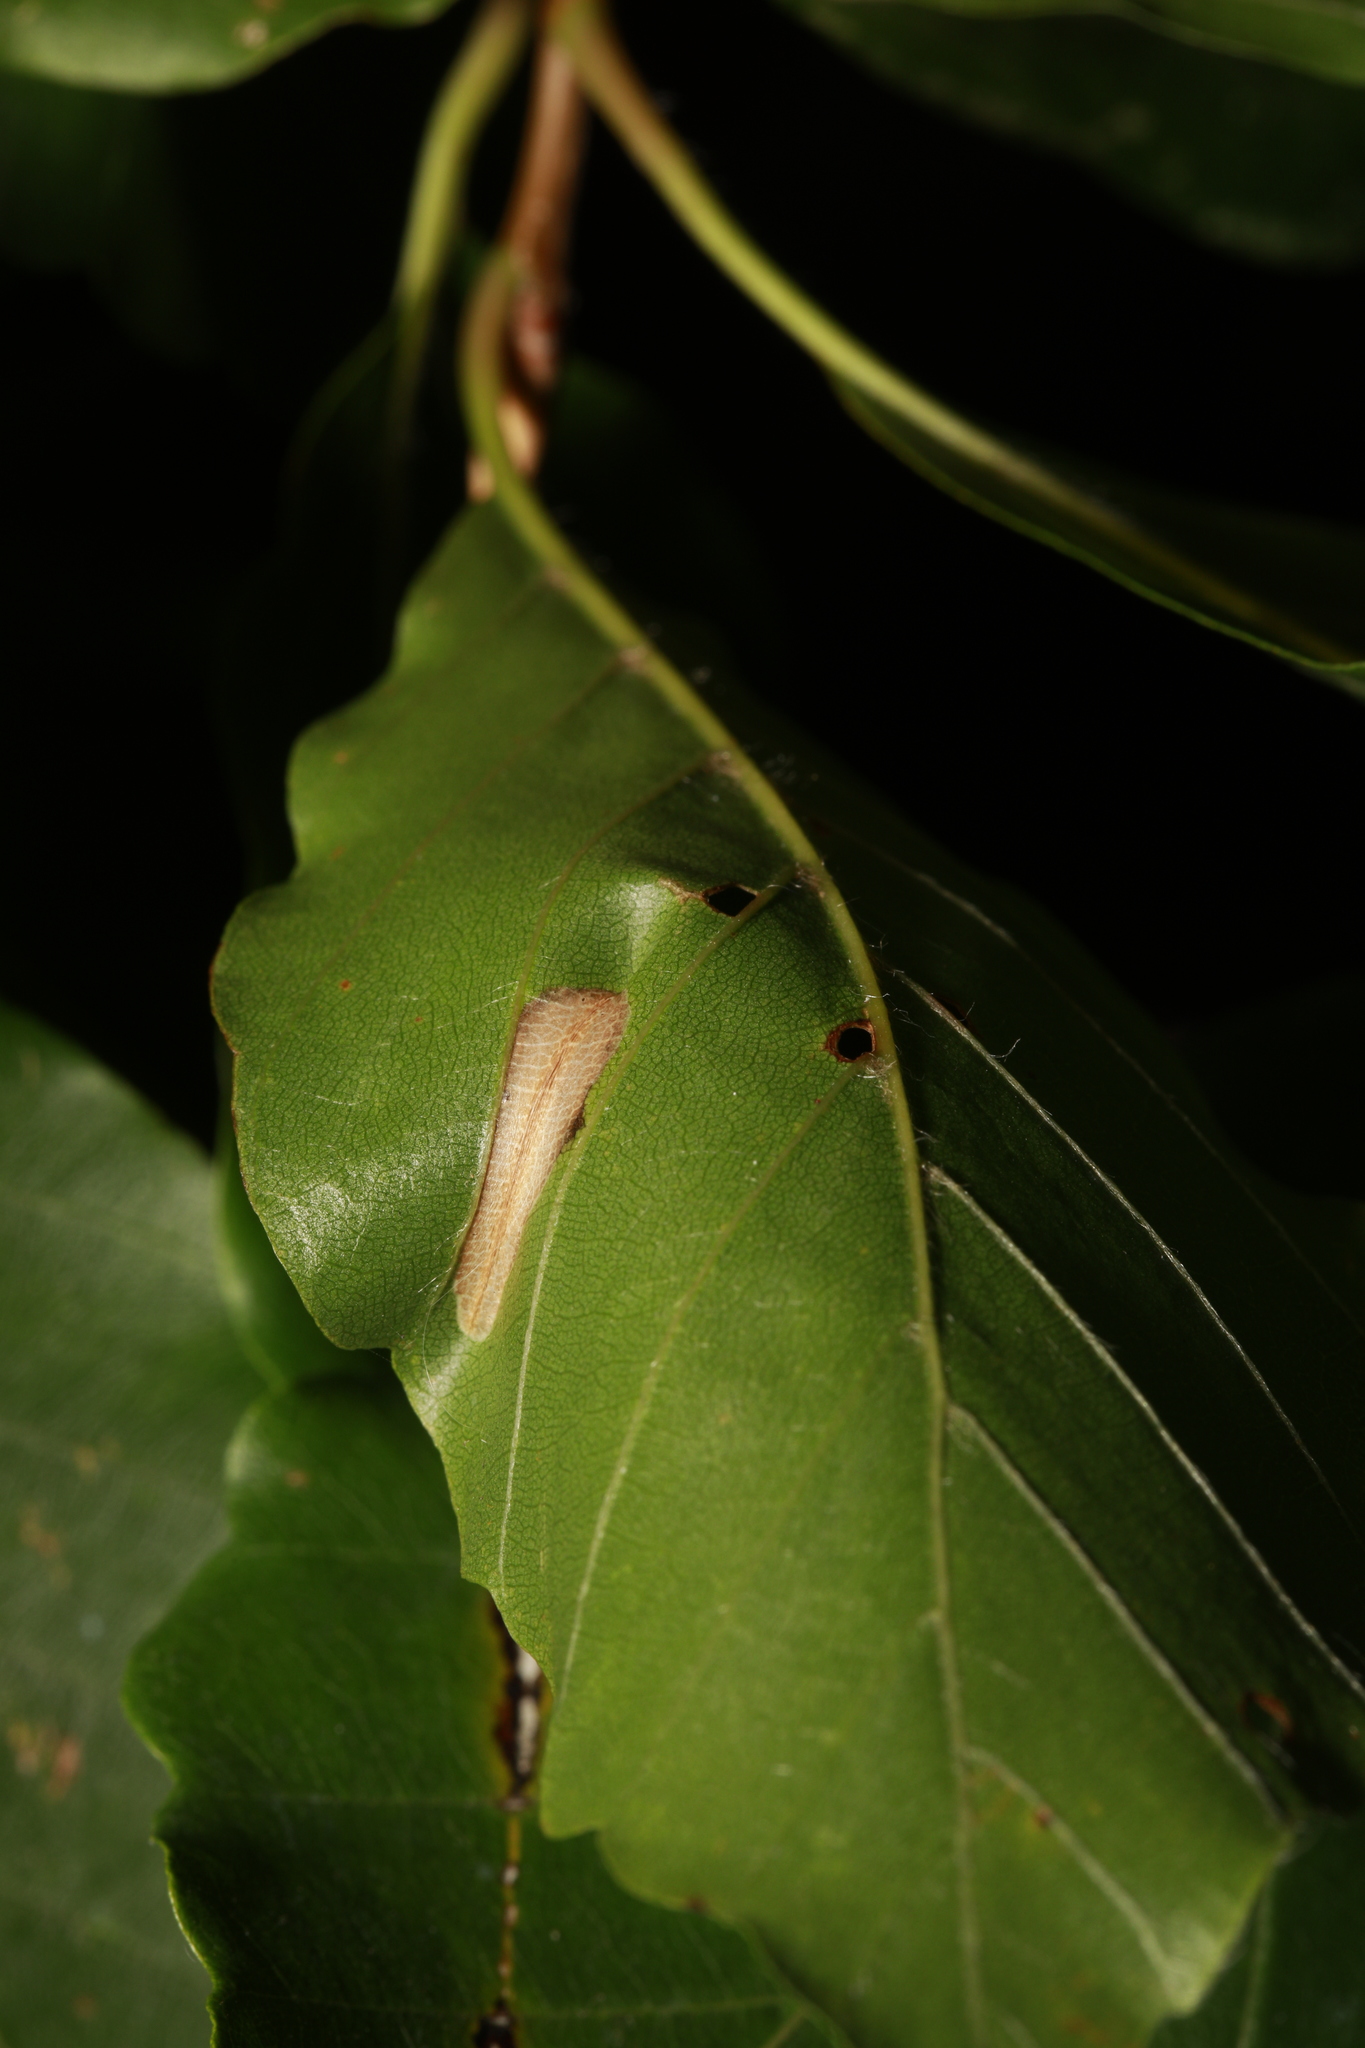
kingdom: Animalia
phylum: Arthropoda
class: Insecta
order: Lepidoptera
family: Gracillariidae
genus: Phyllonorycter
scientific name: Phyllonorycter maestingella
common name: Beech midget
